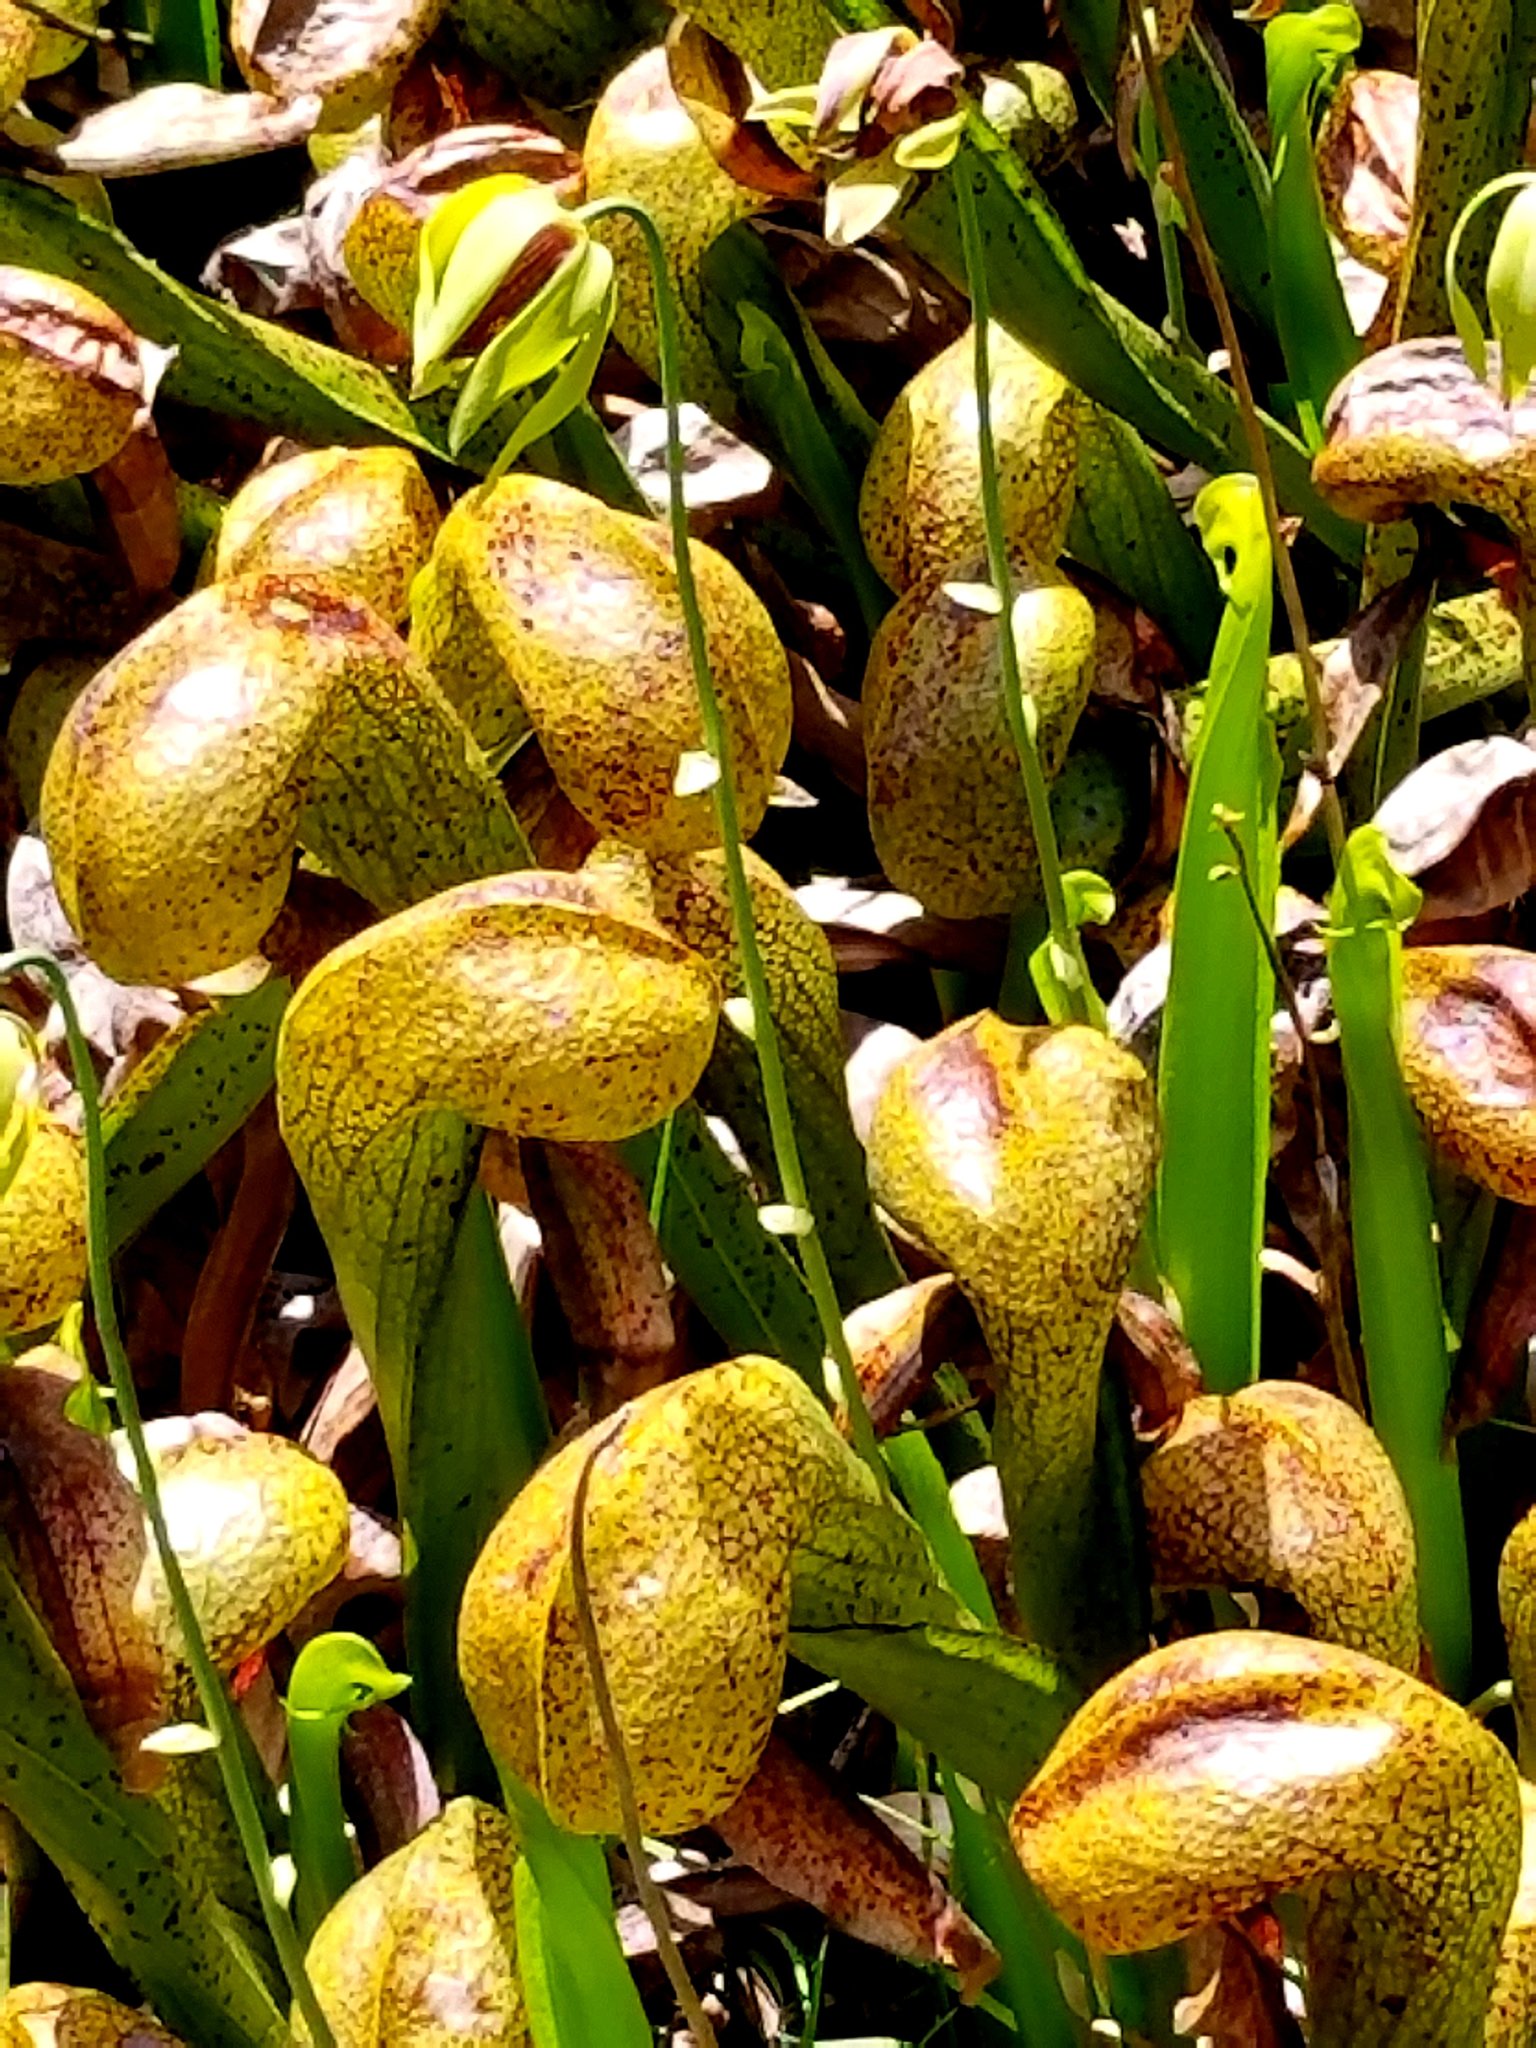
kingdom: Plantae
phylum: Tracheophyta
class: Magnoliopsida
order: Ericales
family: Sarraceniaceae
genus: Darlingtonia
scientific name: Darlingtonia californica
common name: California pitcher plant
